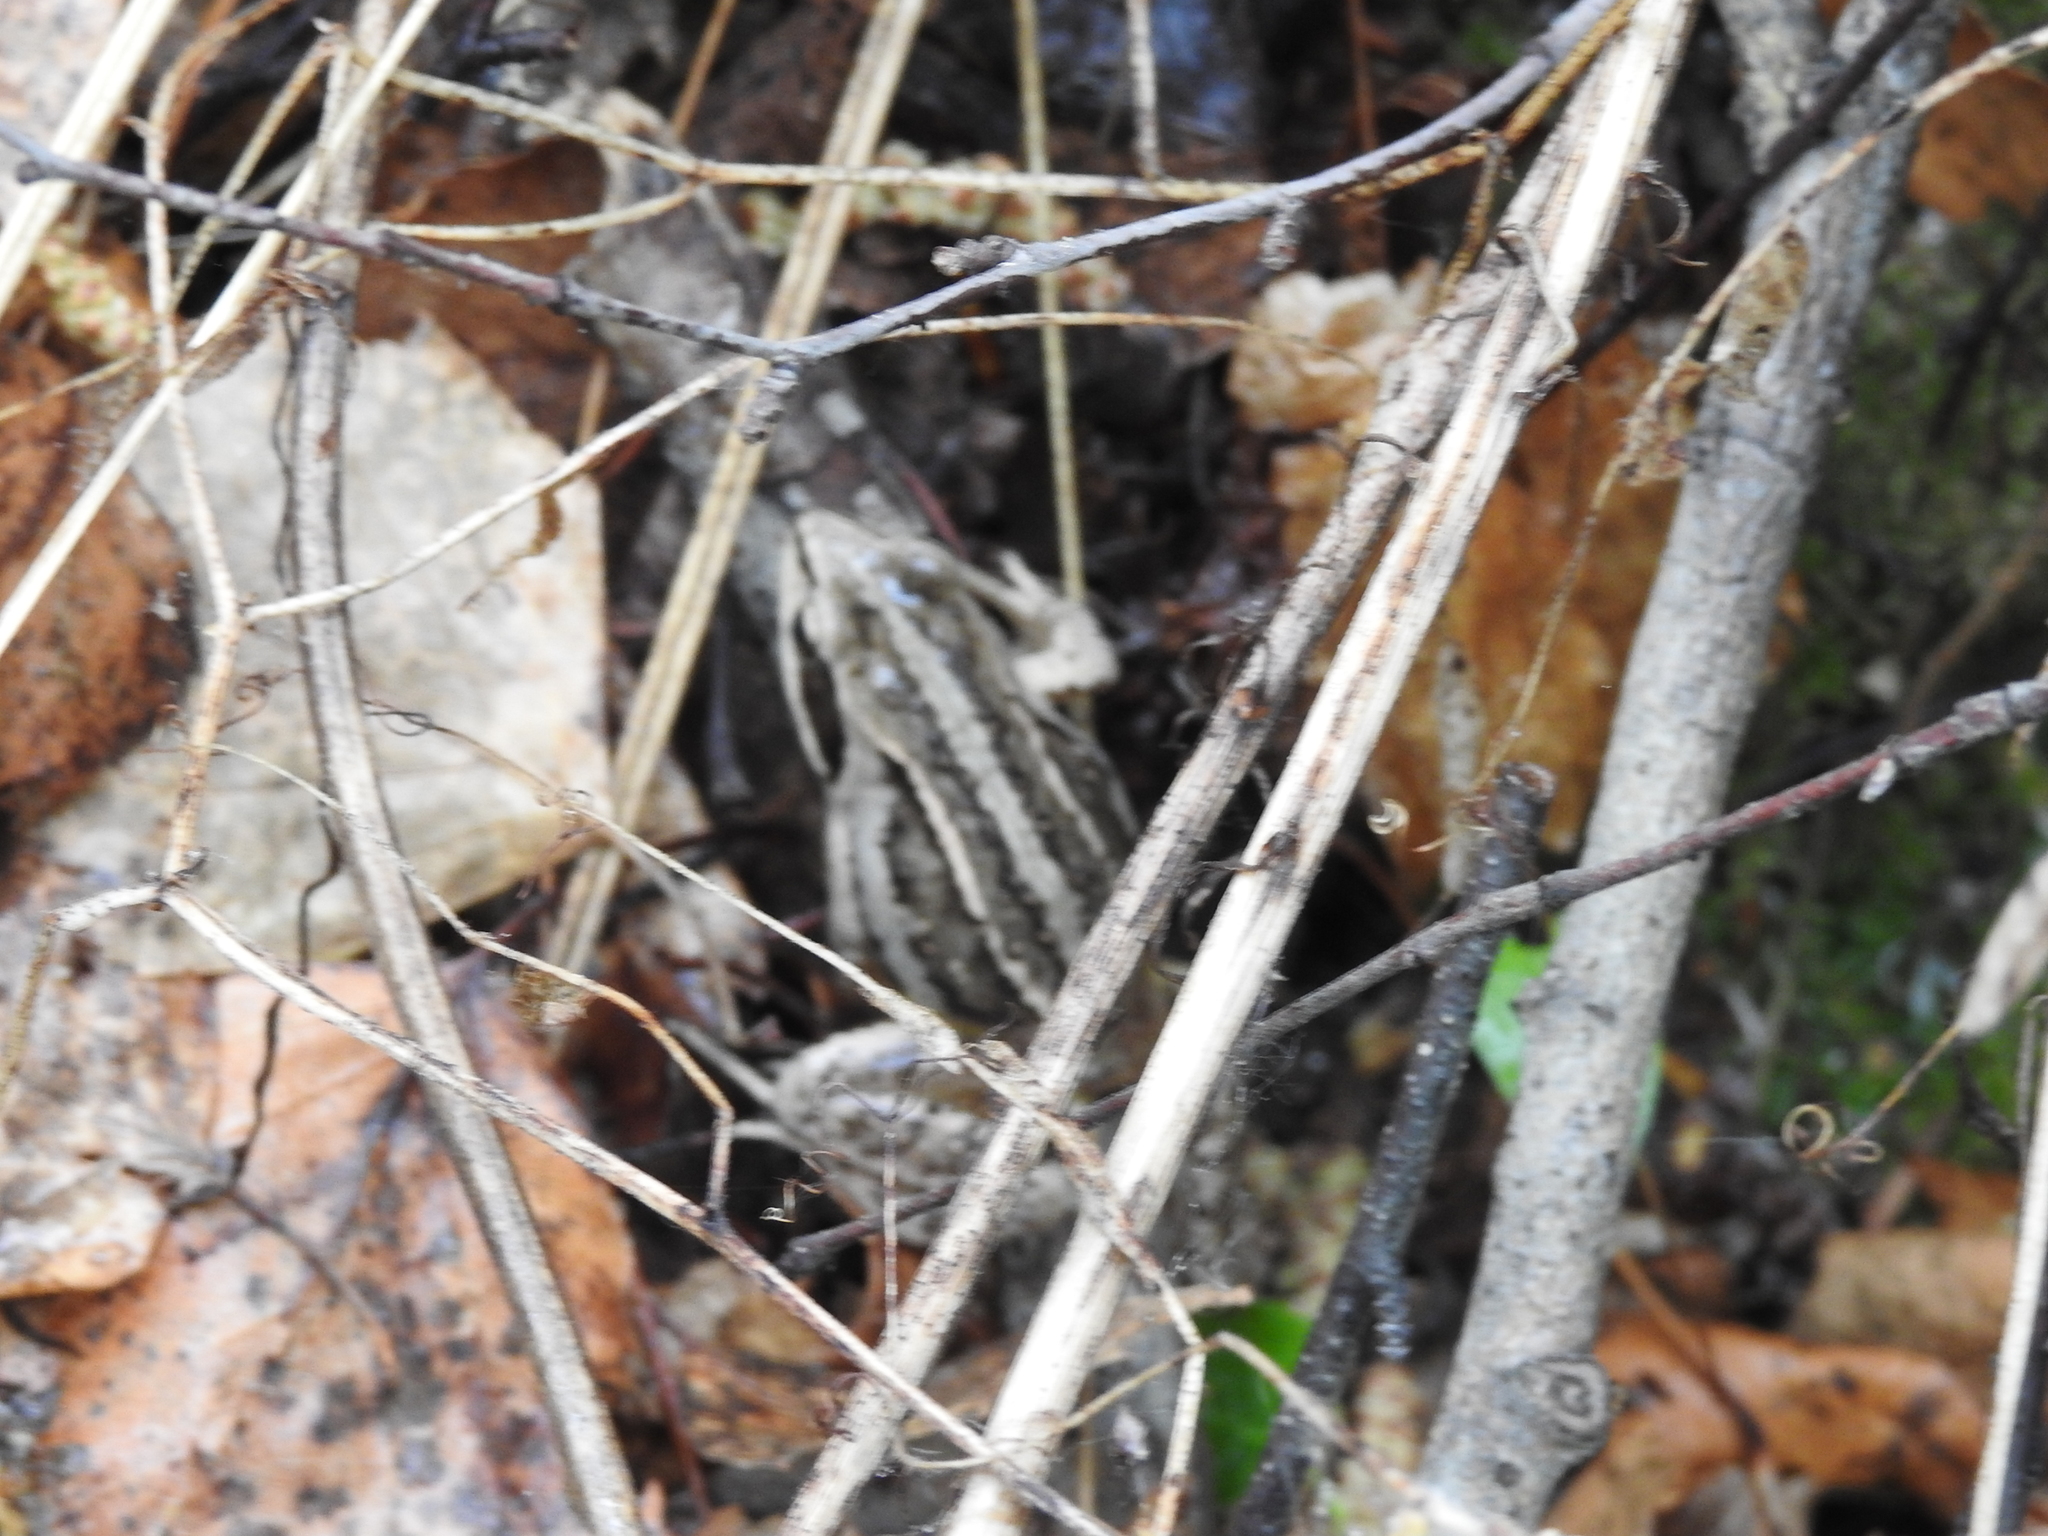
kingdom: Animalia
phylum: Chordata
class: Amphibia
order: Anura
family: Ranidae
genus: Rana
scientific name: Rana arvalis
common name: Moor frog
